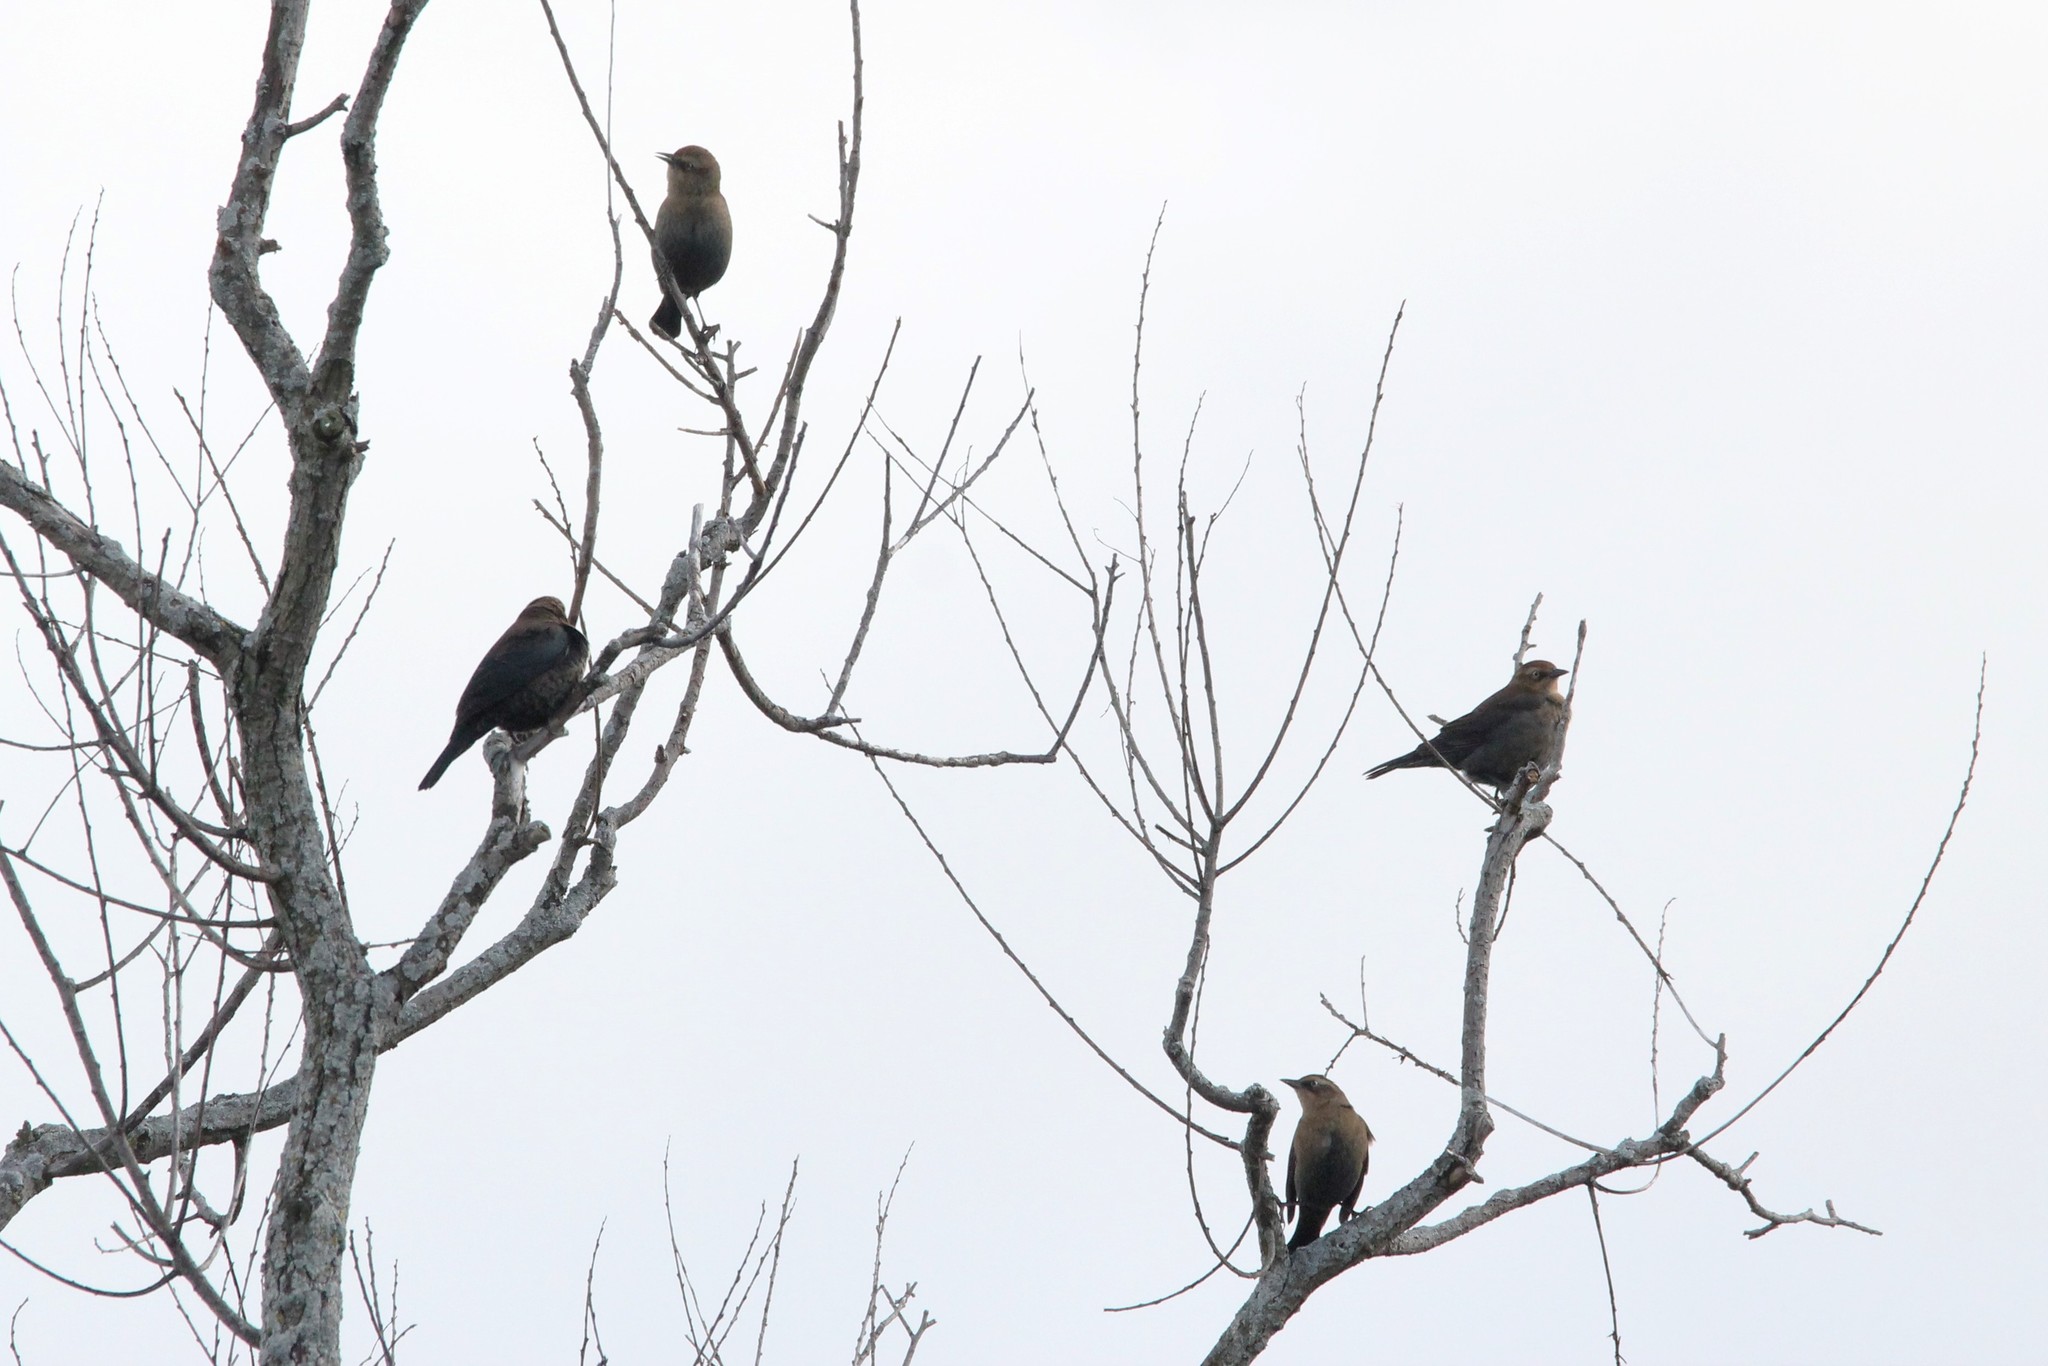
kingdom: Animalia
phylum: Chordata
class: Aves
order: Passeriformes
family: Icteridae
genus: Euphagus
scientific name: Euphagus carolinus
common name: Rusty blackbird
